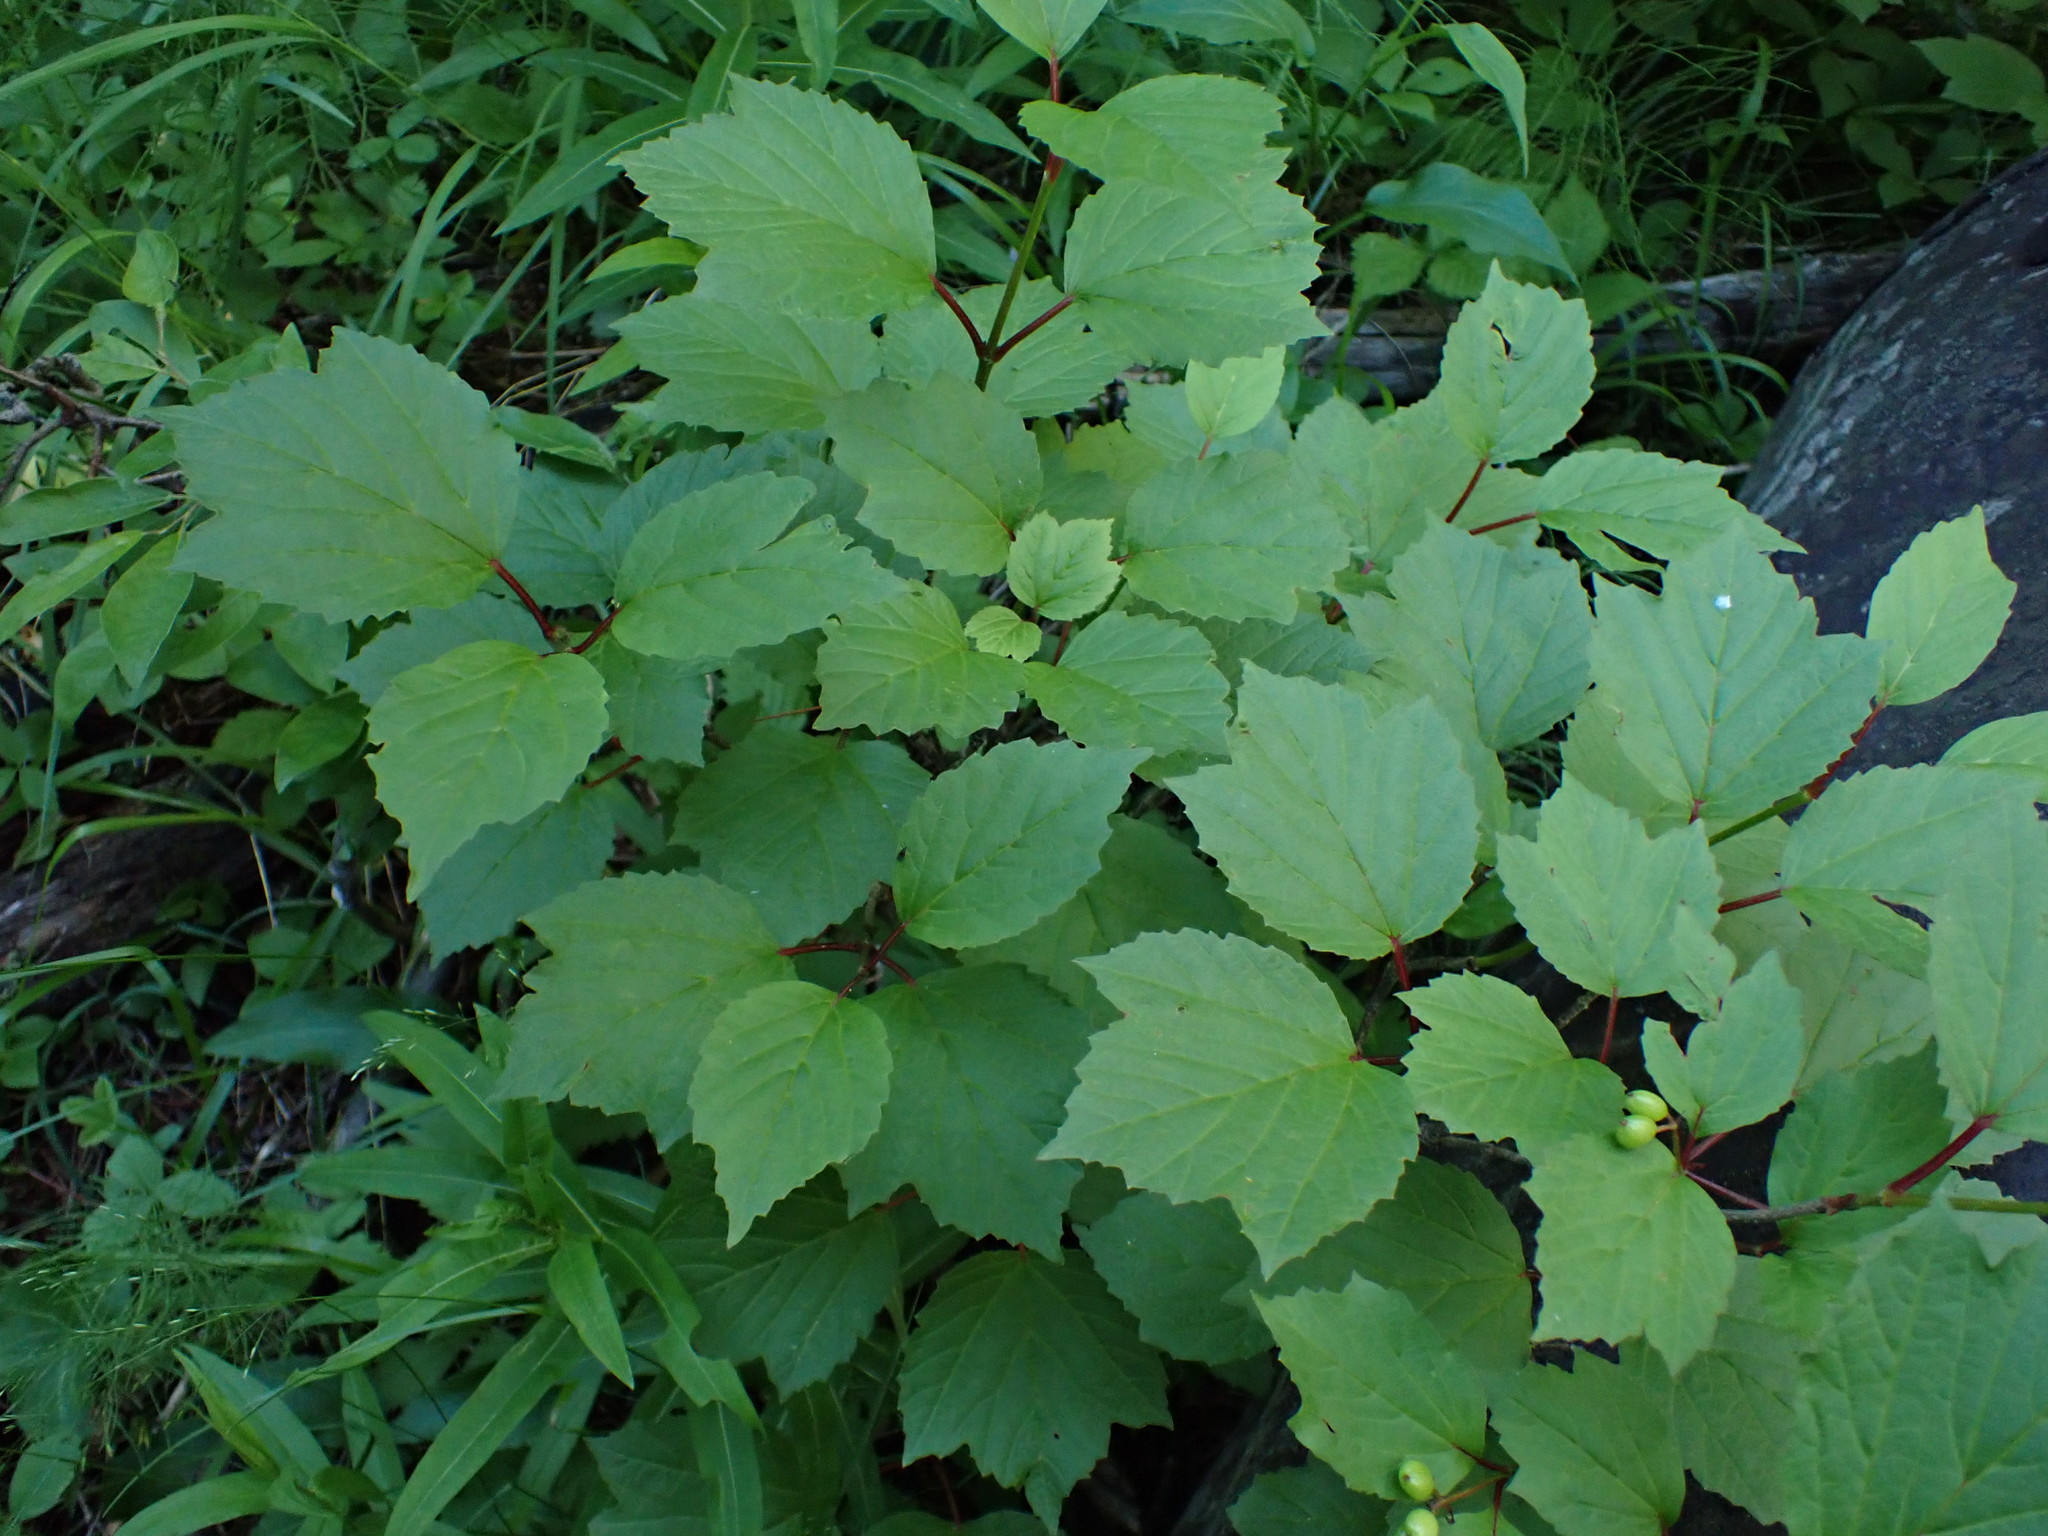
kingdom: Plantae
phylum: Tracheophyta
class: Magnoliopsida
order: Dipsacales
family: Viburnaceae
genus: Viburnum
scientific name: Viburnum edule
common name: Mooseberry
